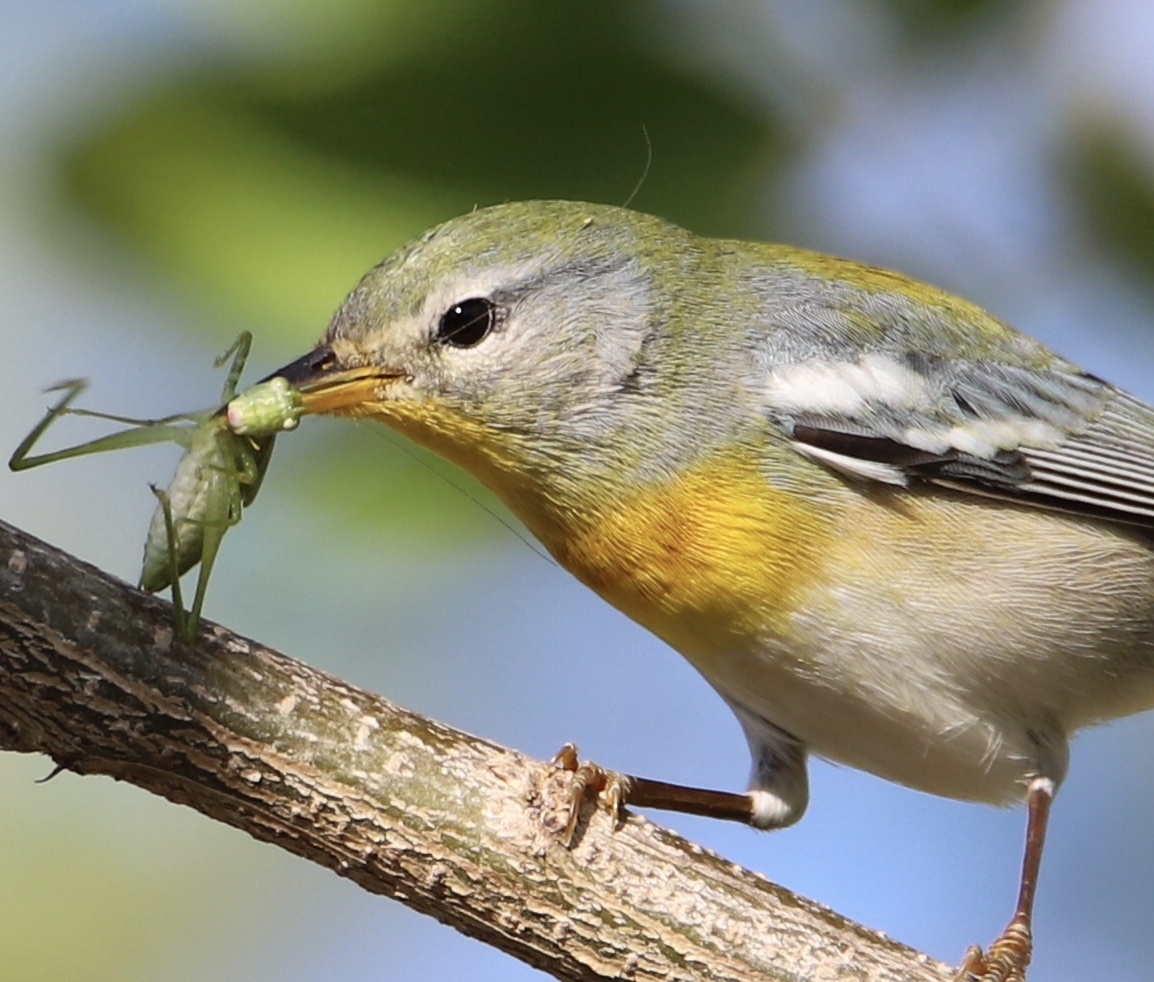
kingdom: Animalia
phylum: Chordata
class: Aves
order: Passeriformes
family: Parulidae
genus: Setophaga
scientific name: Setophaga americana
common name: Northern parula
